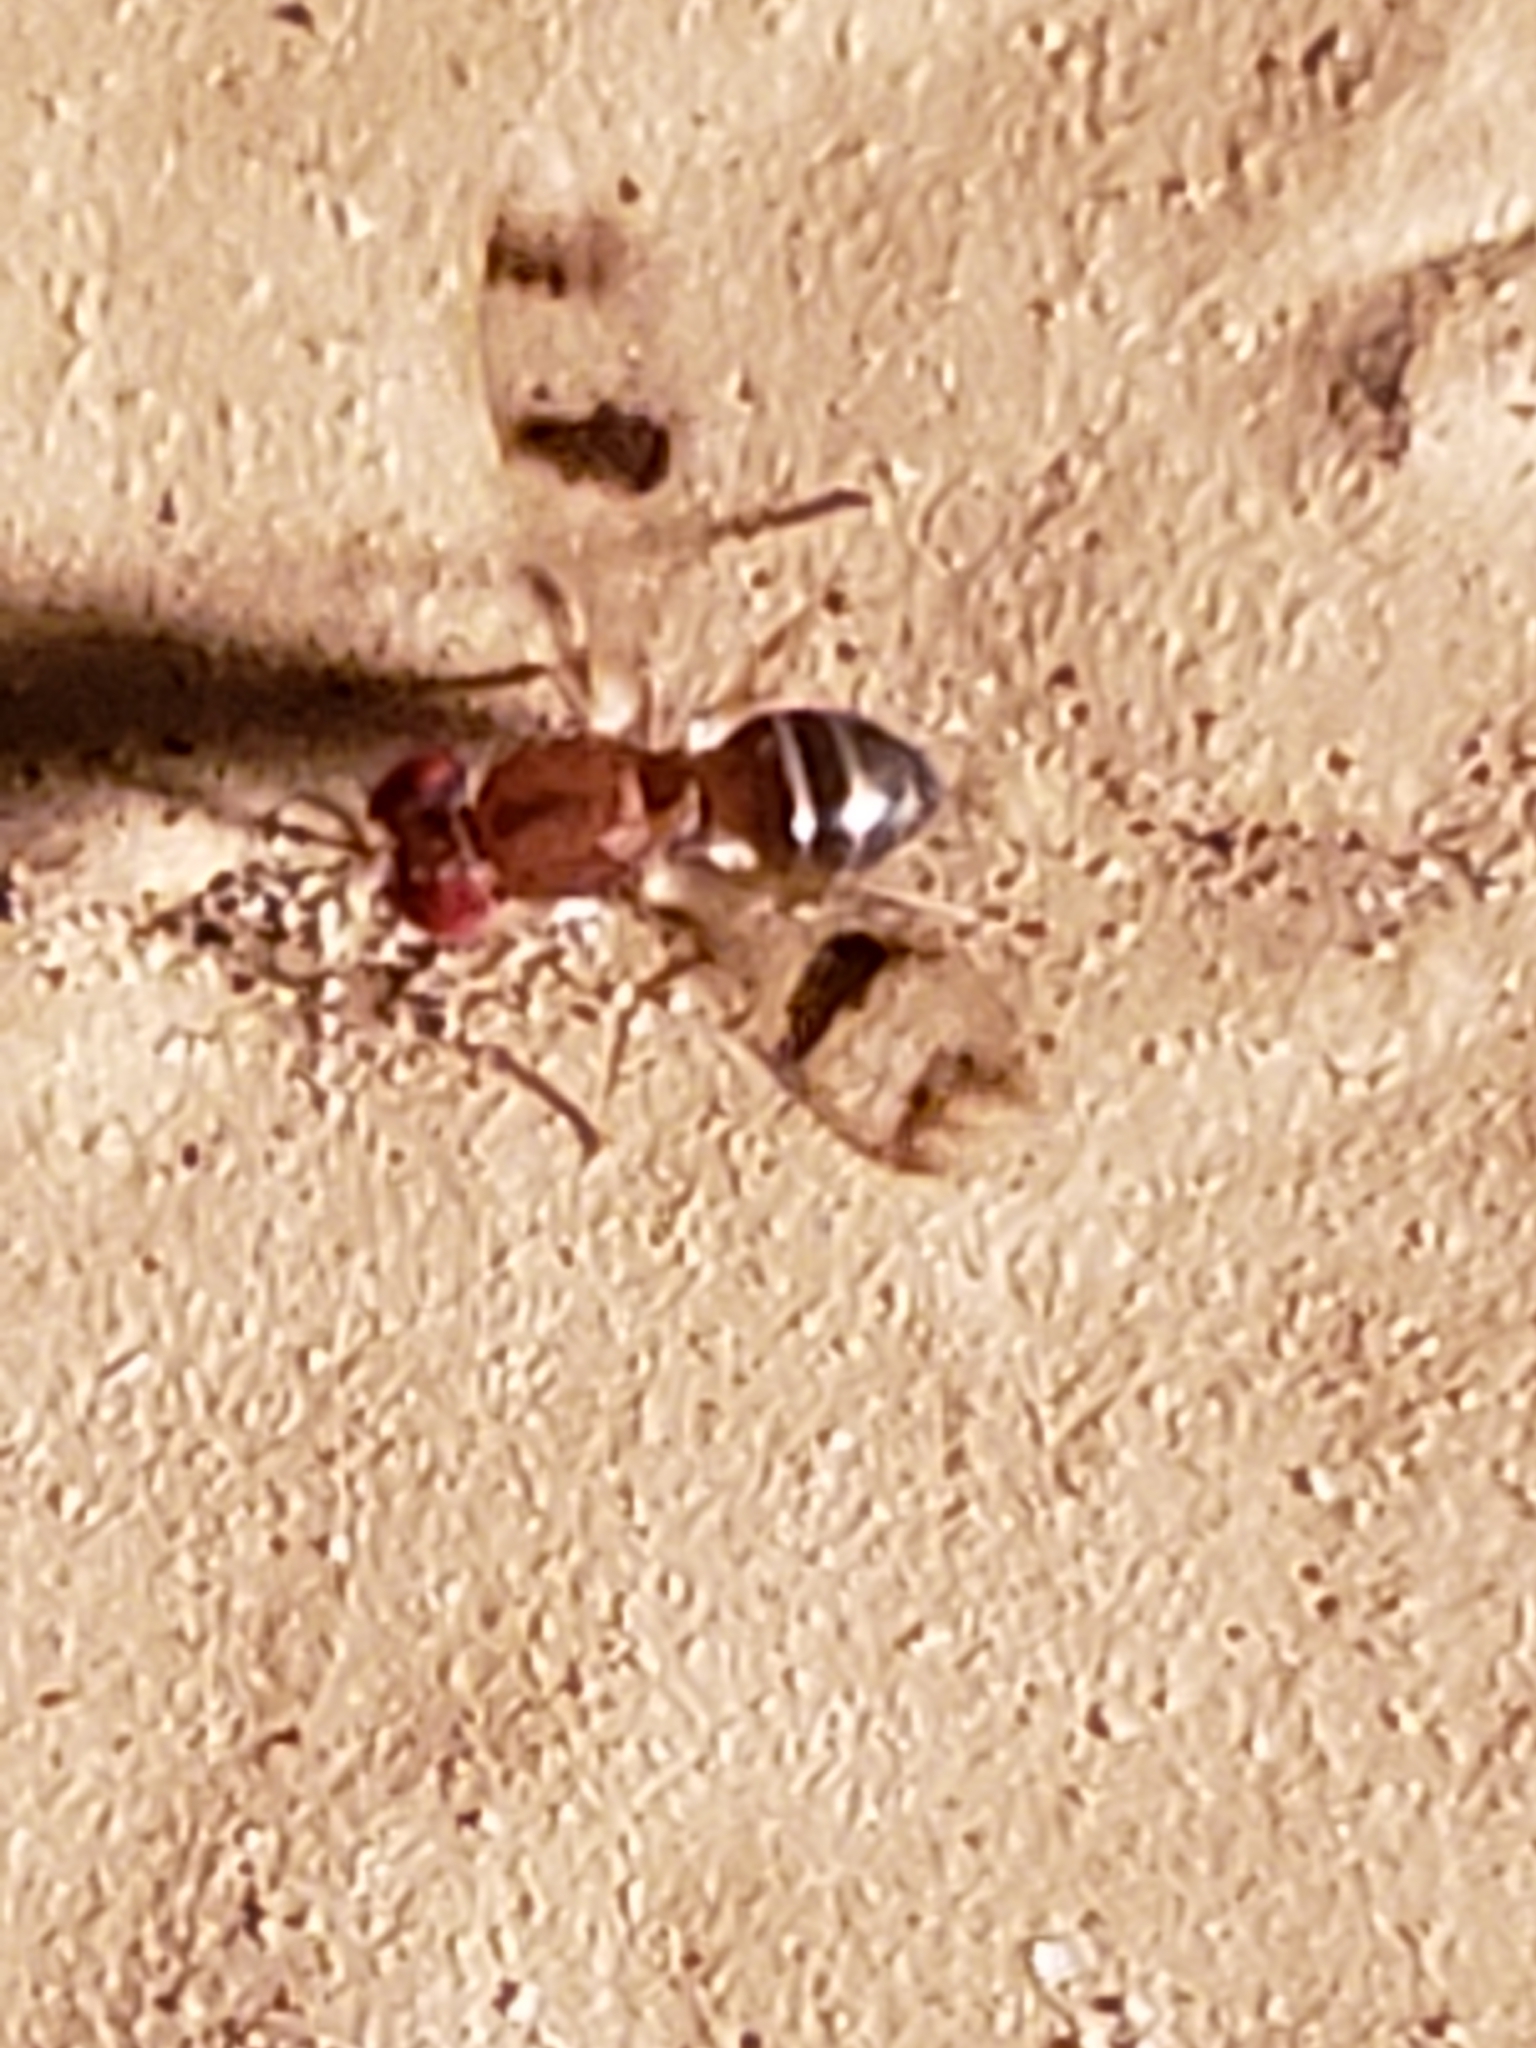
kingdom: Animalia
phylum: Arthropoda
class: Insecta
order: Diptera
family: Drosophilidae
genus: Chymomyza
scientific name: Chymomyza amoena
